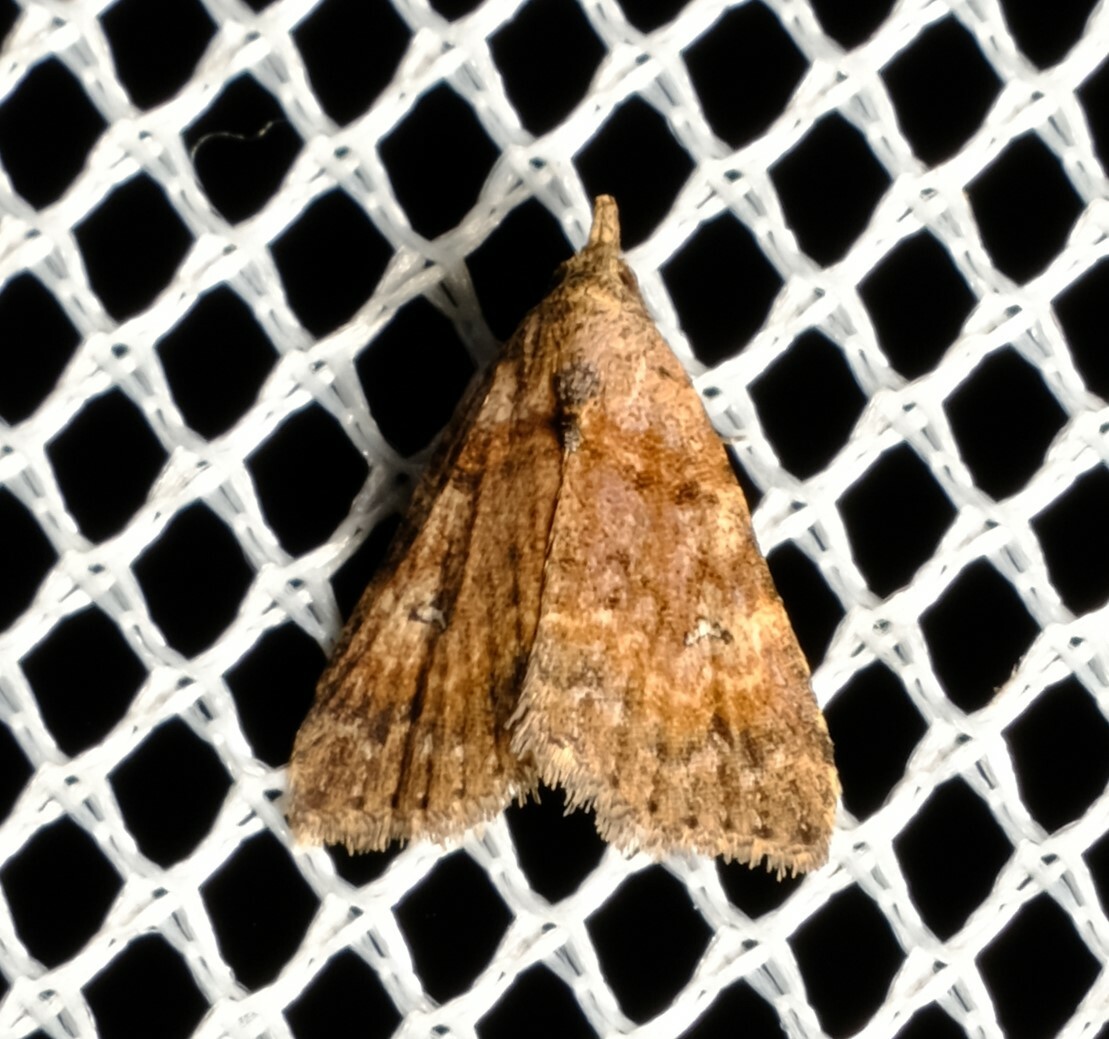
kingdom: Animalia
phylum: Arthropoda
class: Insecta
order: Lepidoptera
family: Erebidae
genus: Alapadna
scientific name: Alapadna pauropis
